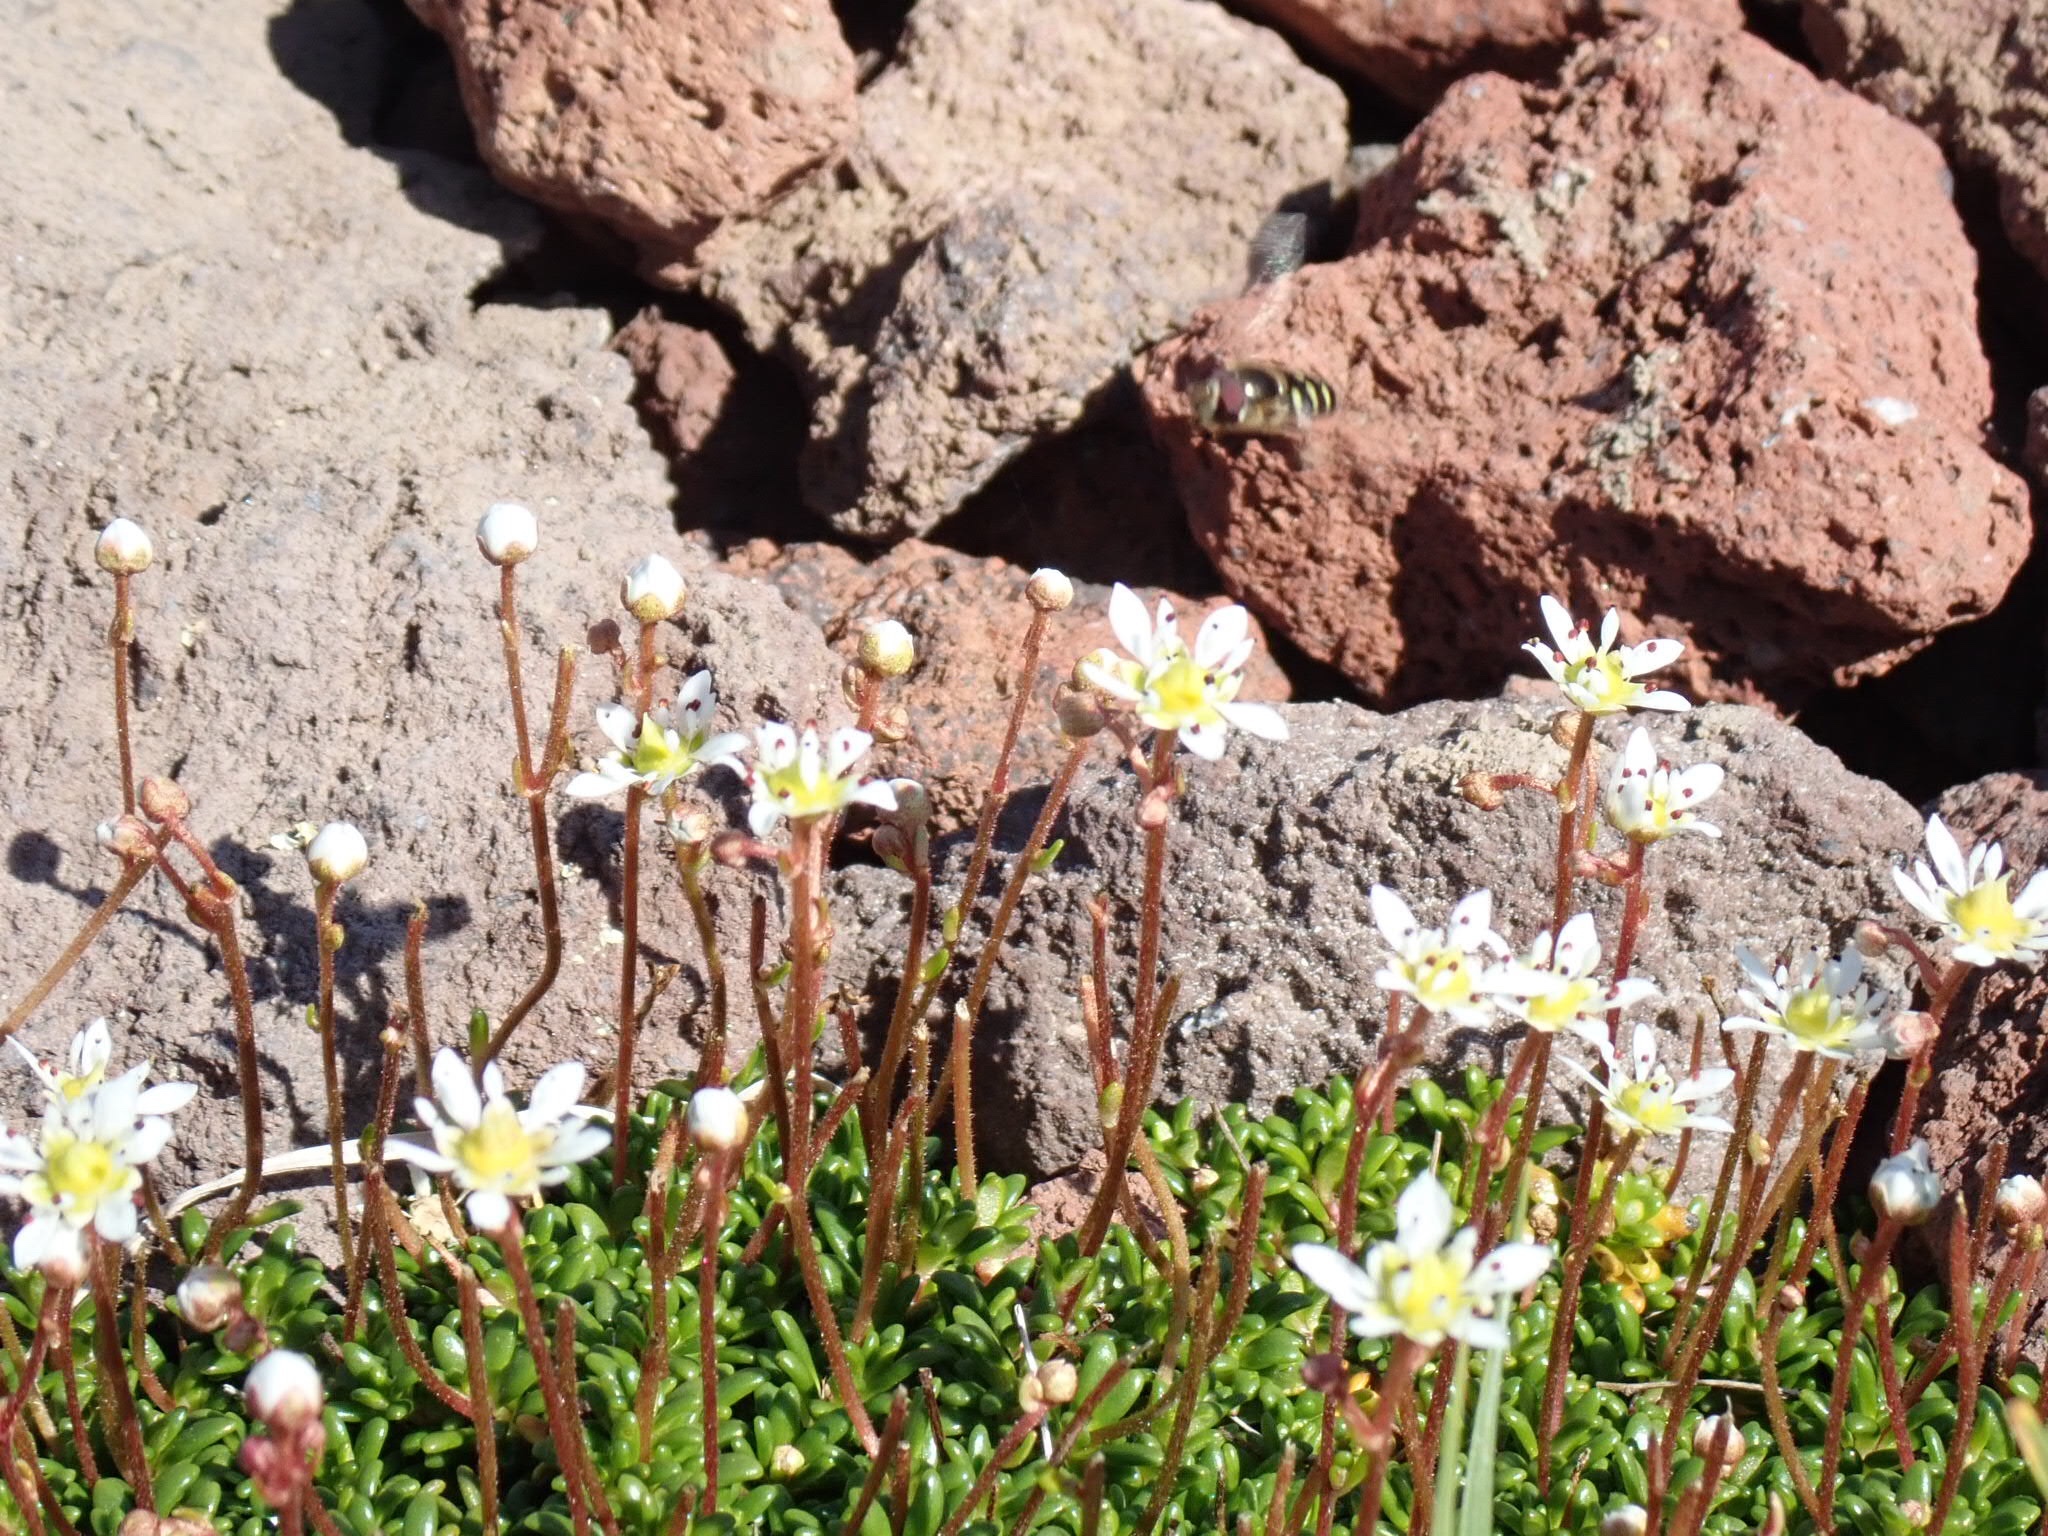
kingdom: Plantae
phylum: Tracheophyta
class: Magnoliopsida
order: Saxifragales
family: Saxifragaceae
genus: Micranthes
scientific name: Micranthes tolmiei
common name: Tolmie's saxifrage
